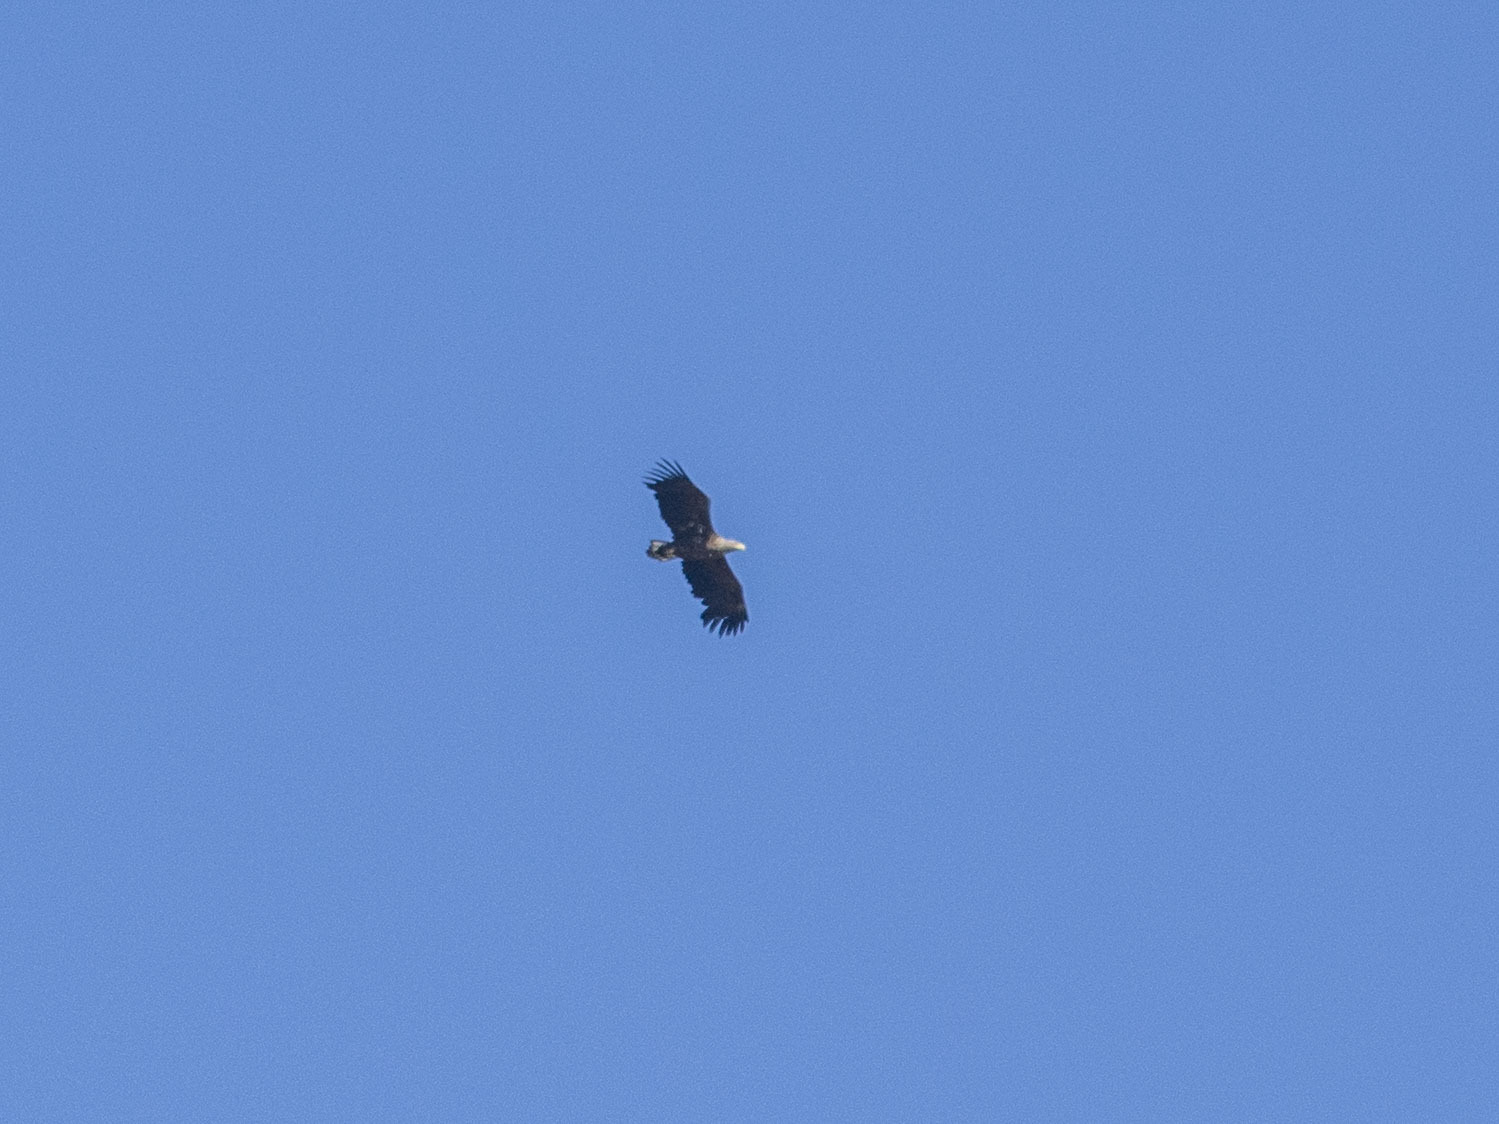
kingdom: Animalia
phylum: Chordata
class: Aves
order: Accipitriformes
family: Accipitridae
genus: Haliaeetus
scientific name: Haliaeetus albicilla
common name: White-tailed eagle
